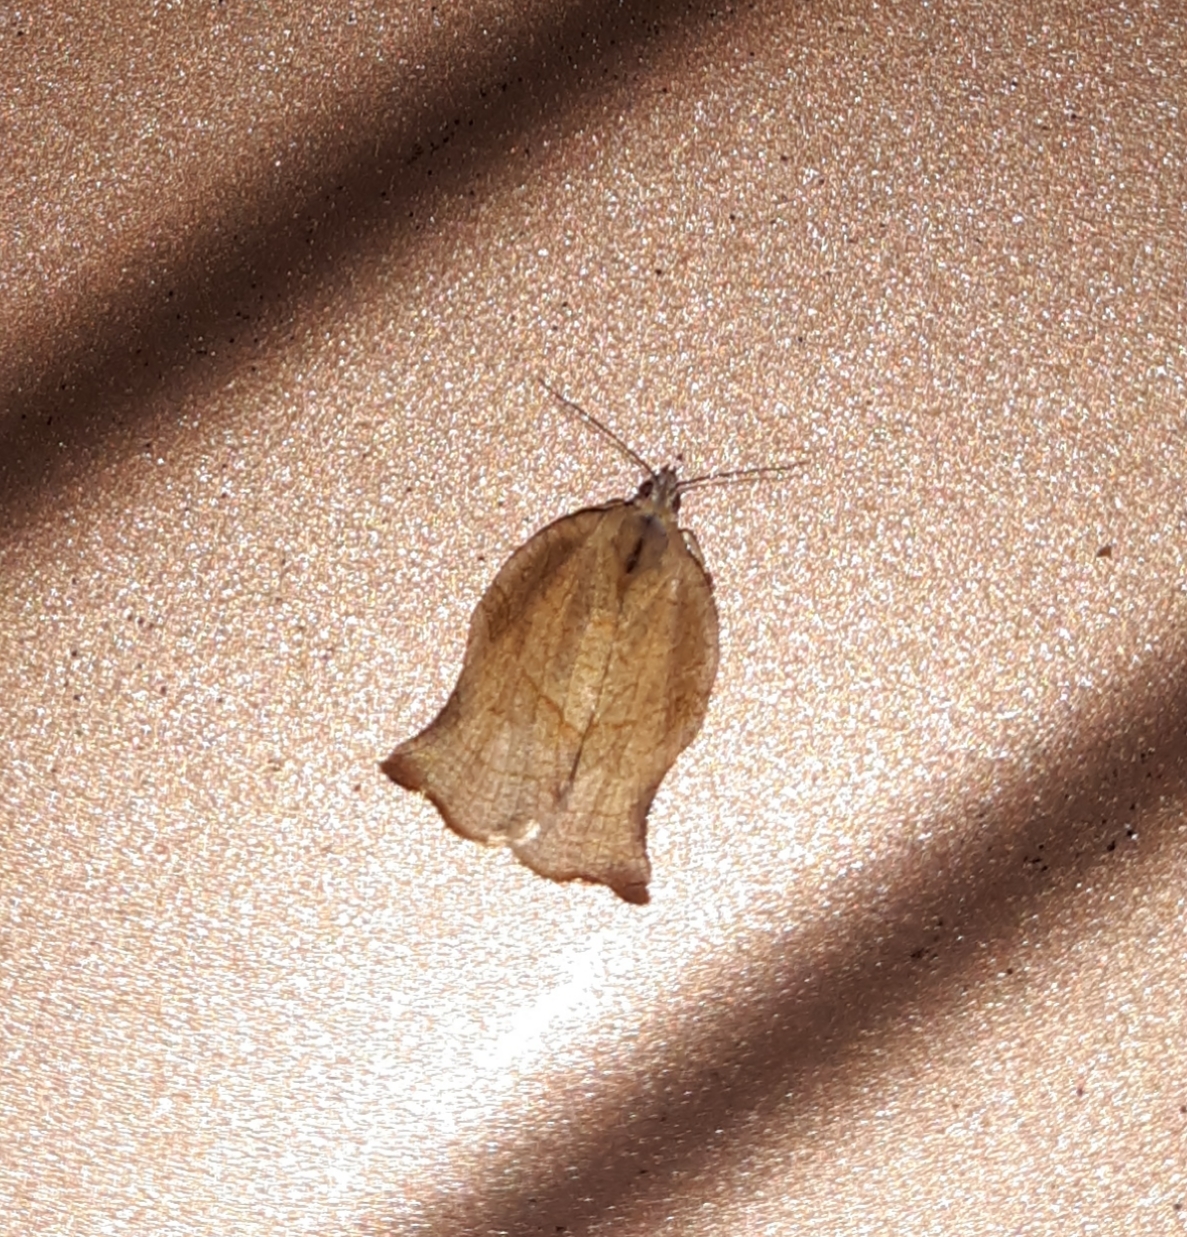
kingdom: Animalia
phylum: Arthropoda
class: Insecta
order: Lepidoptera
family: Tortricidae
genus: Archips
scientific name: Archips purpurana
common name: Omnivorous leafroller
